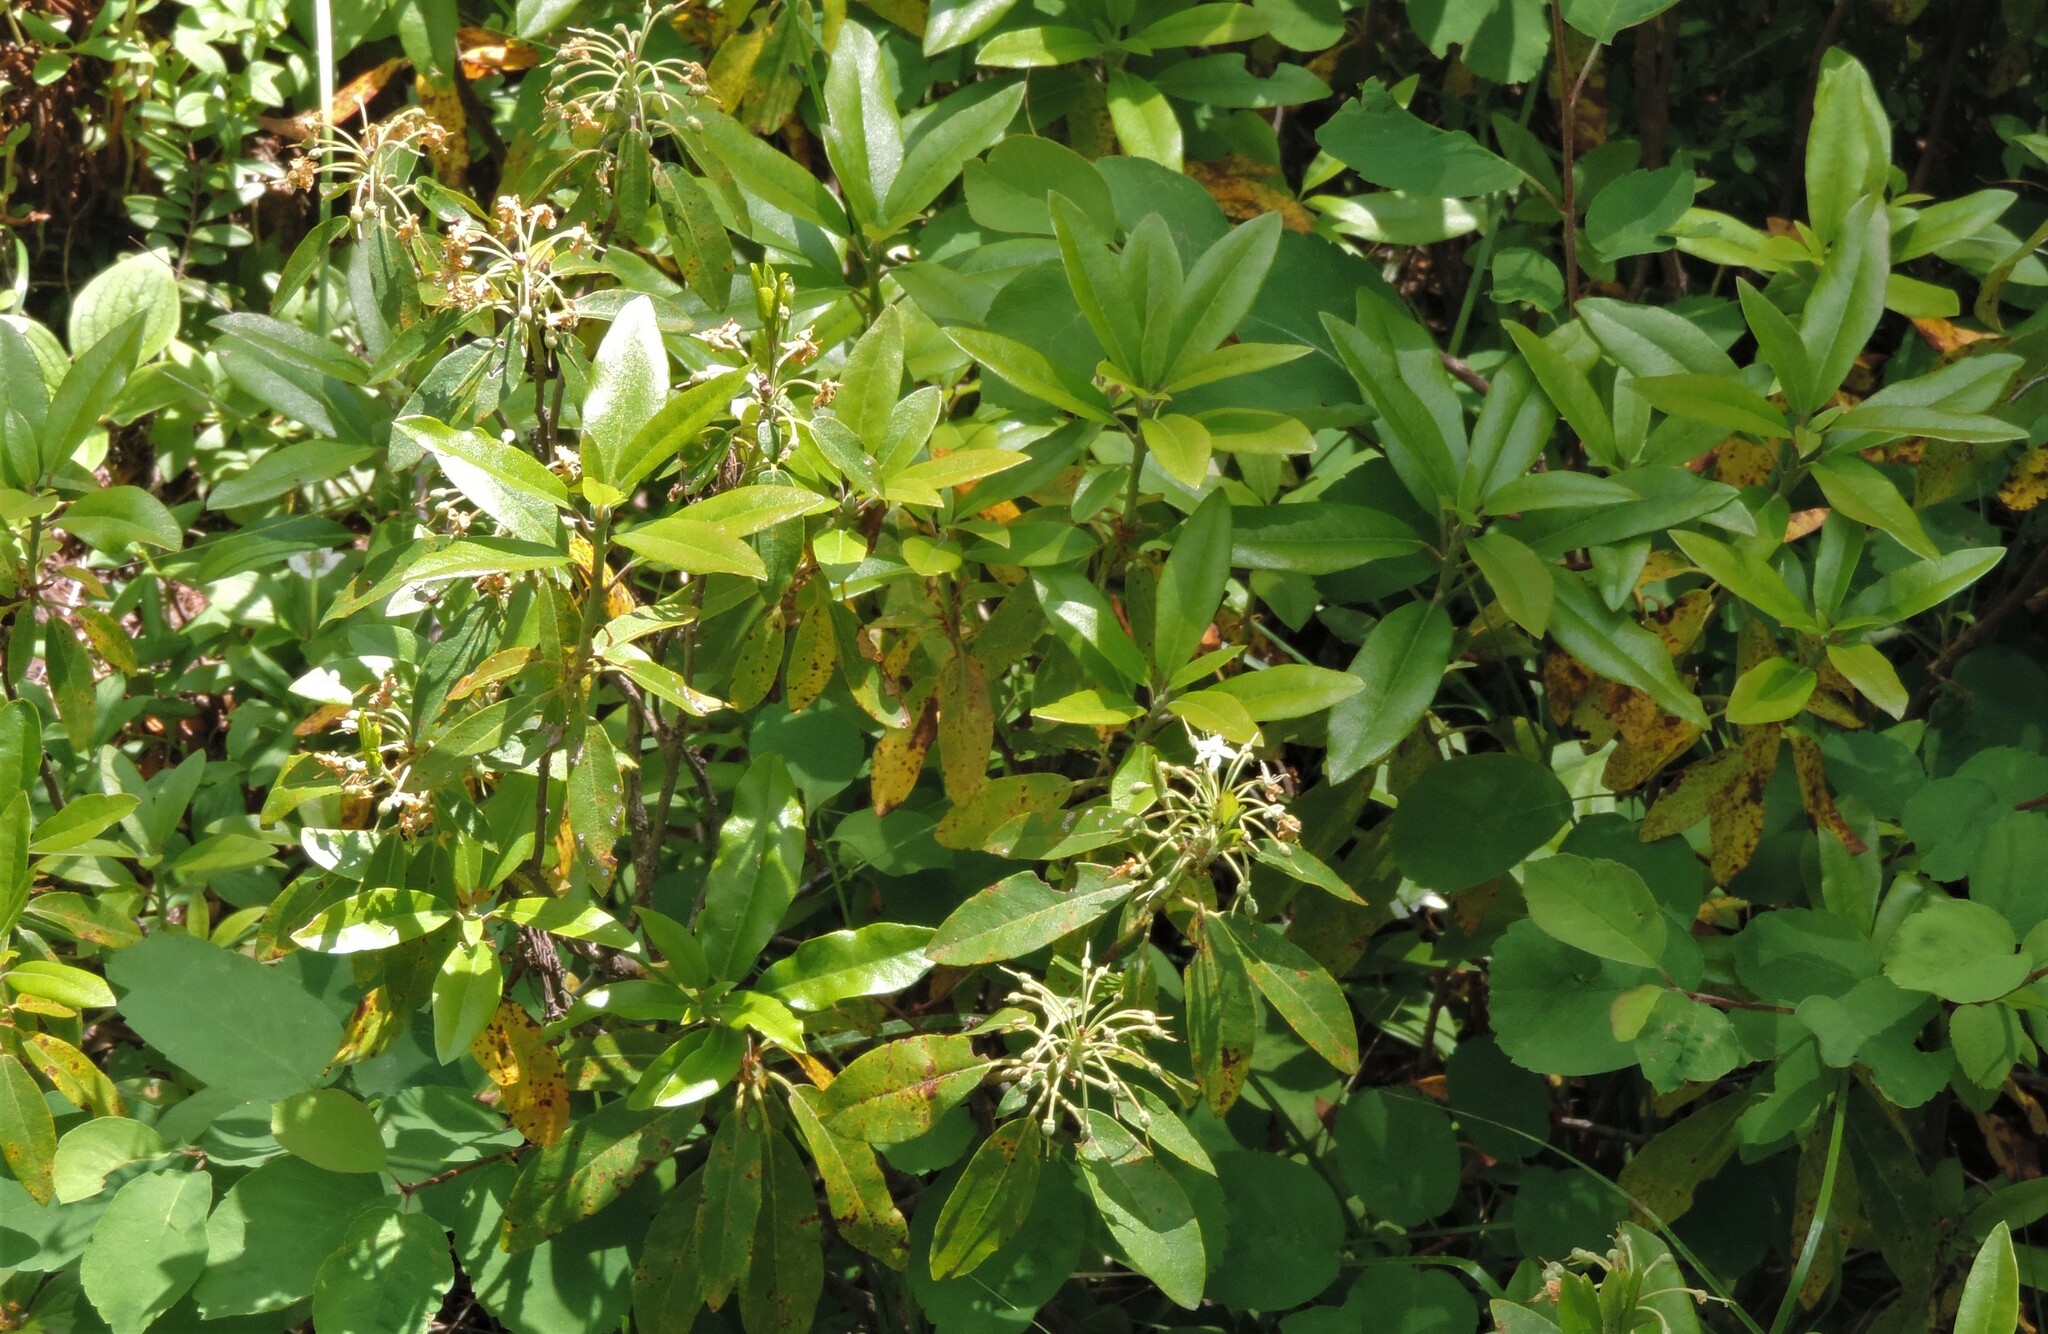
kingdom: Plantae
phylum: Tracheophyta
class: Magnoliopsida
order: Ericales
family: Ericaceae
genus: Rhododendron
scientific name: Rhododendron columbianum
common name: Western labrador tea
